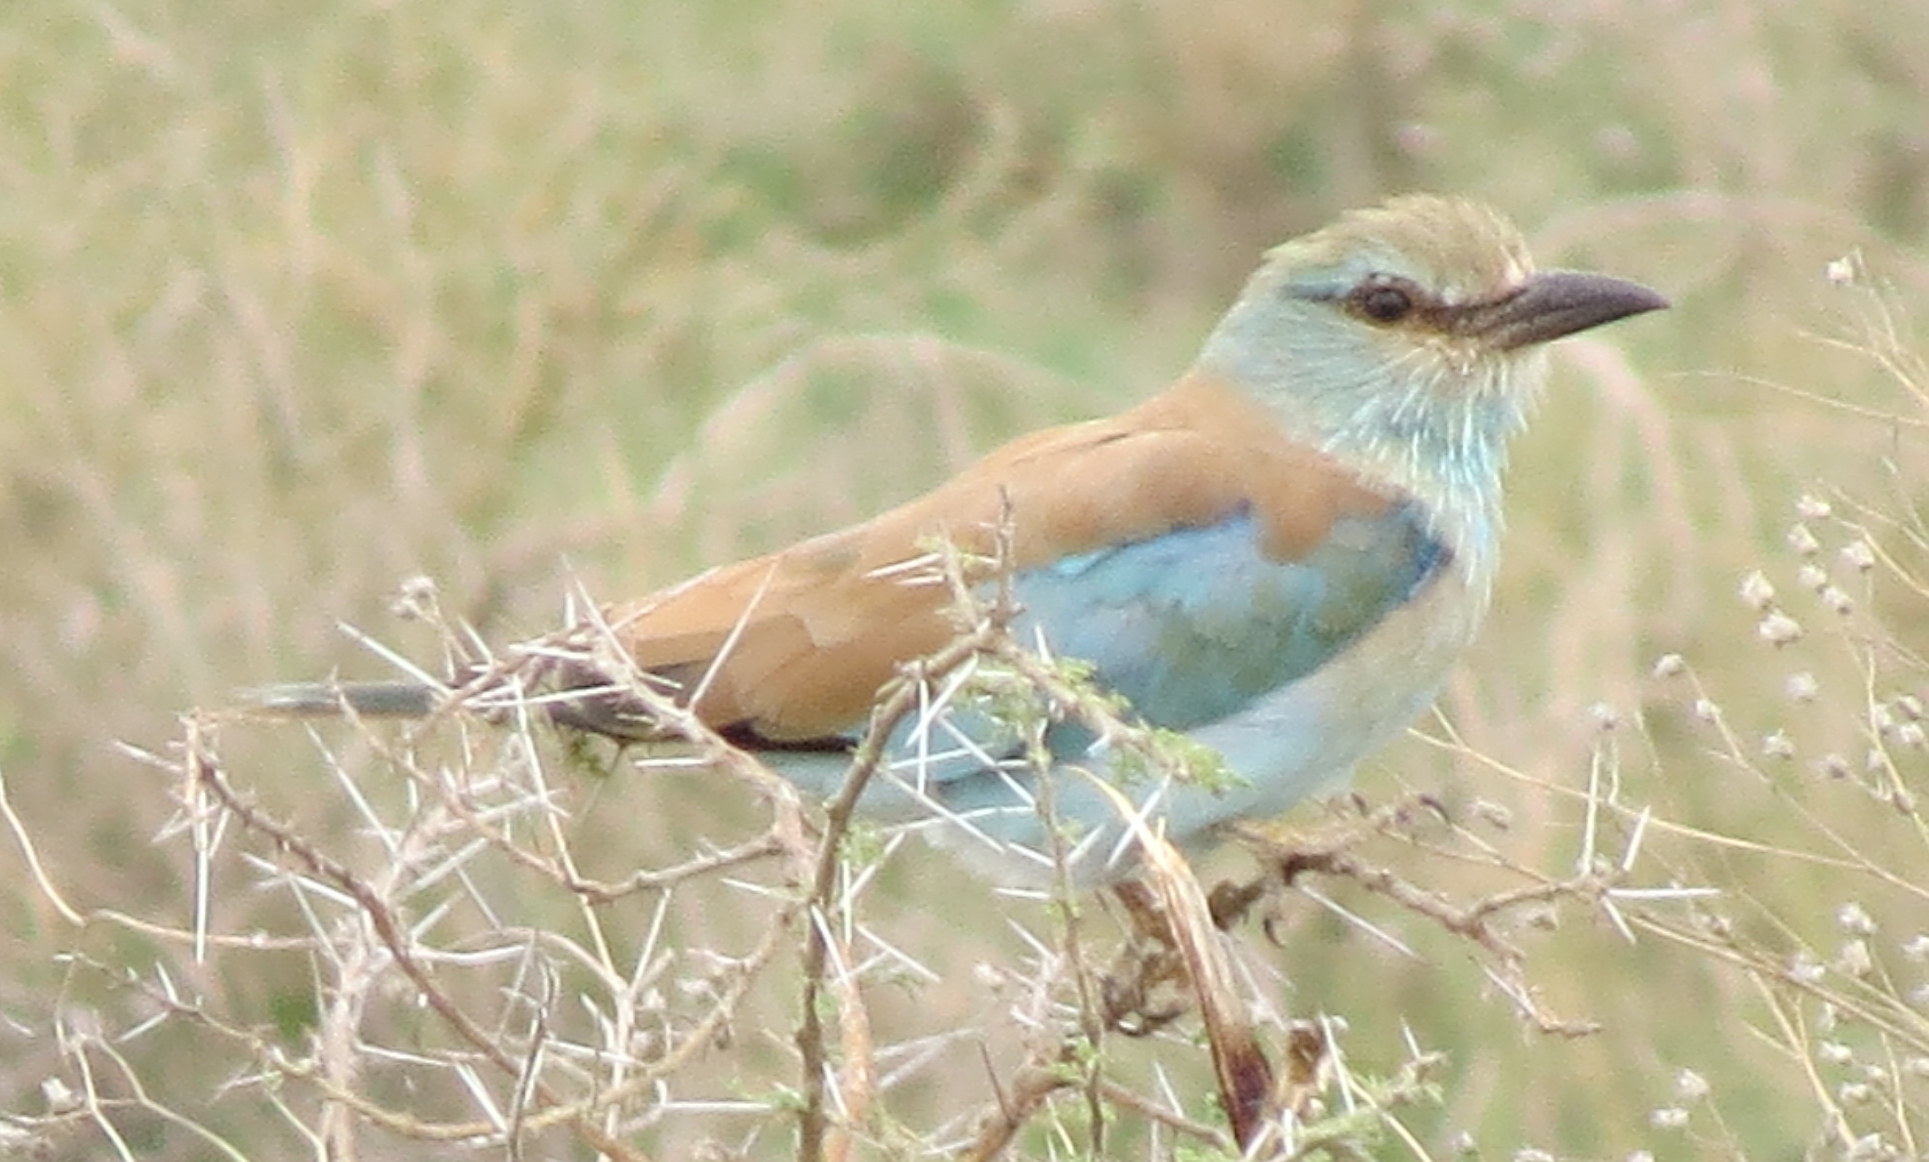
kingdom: Animalia
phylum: Chordata
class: Aves
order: Coraciiformes
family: Coraciidae
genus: Coracias
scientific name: Coracias garrulus
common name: European roller
